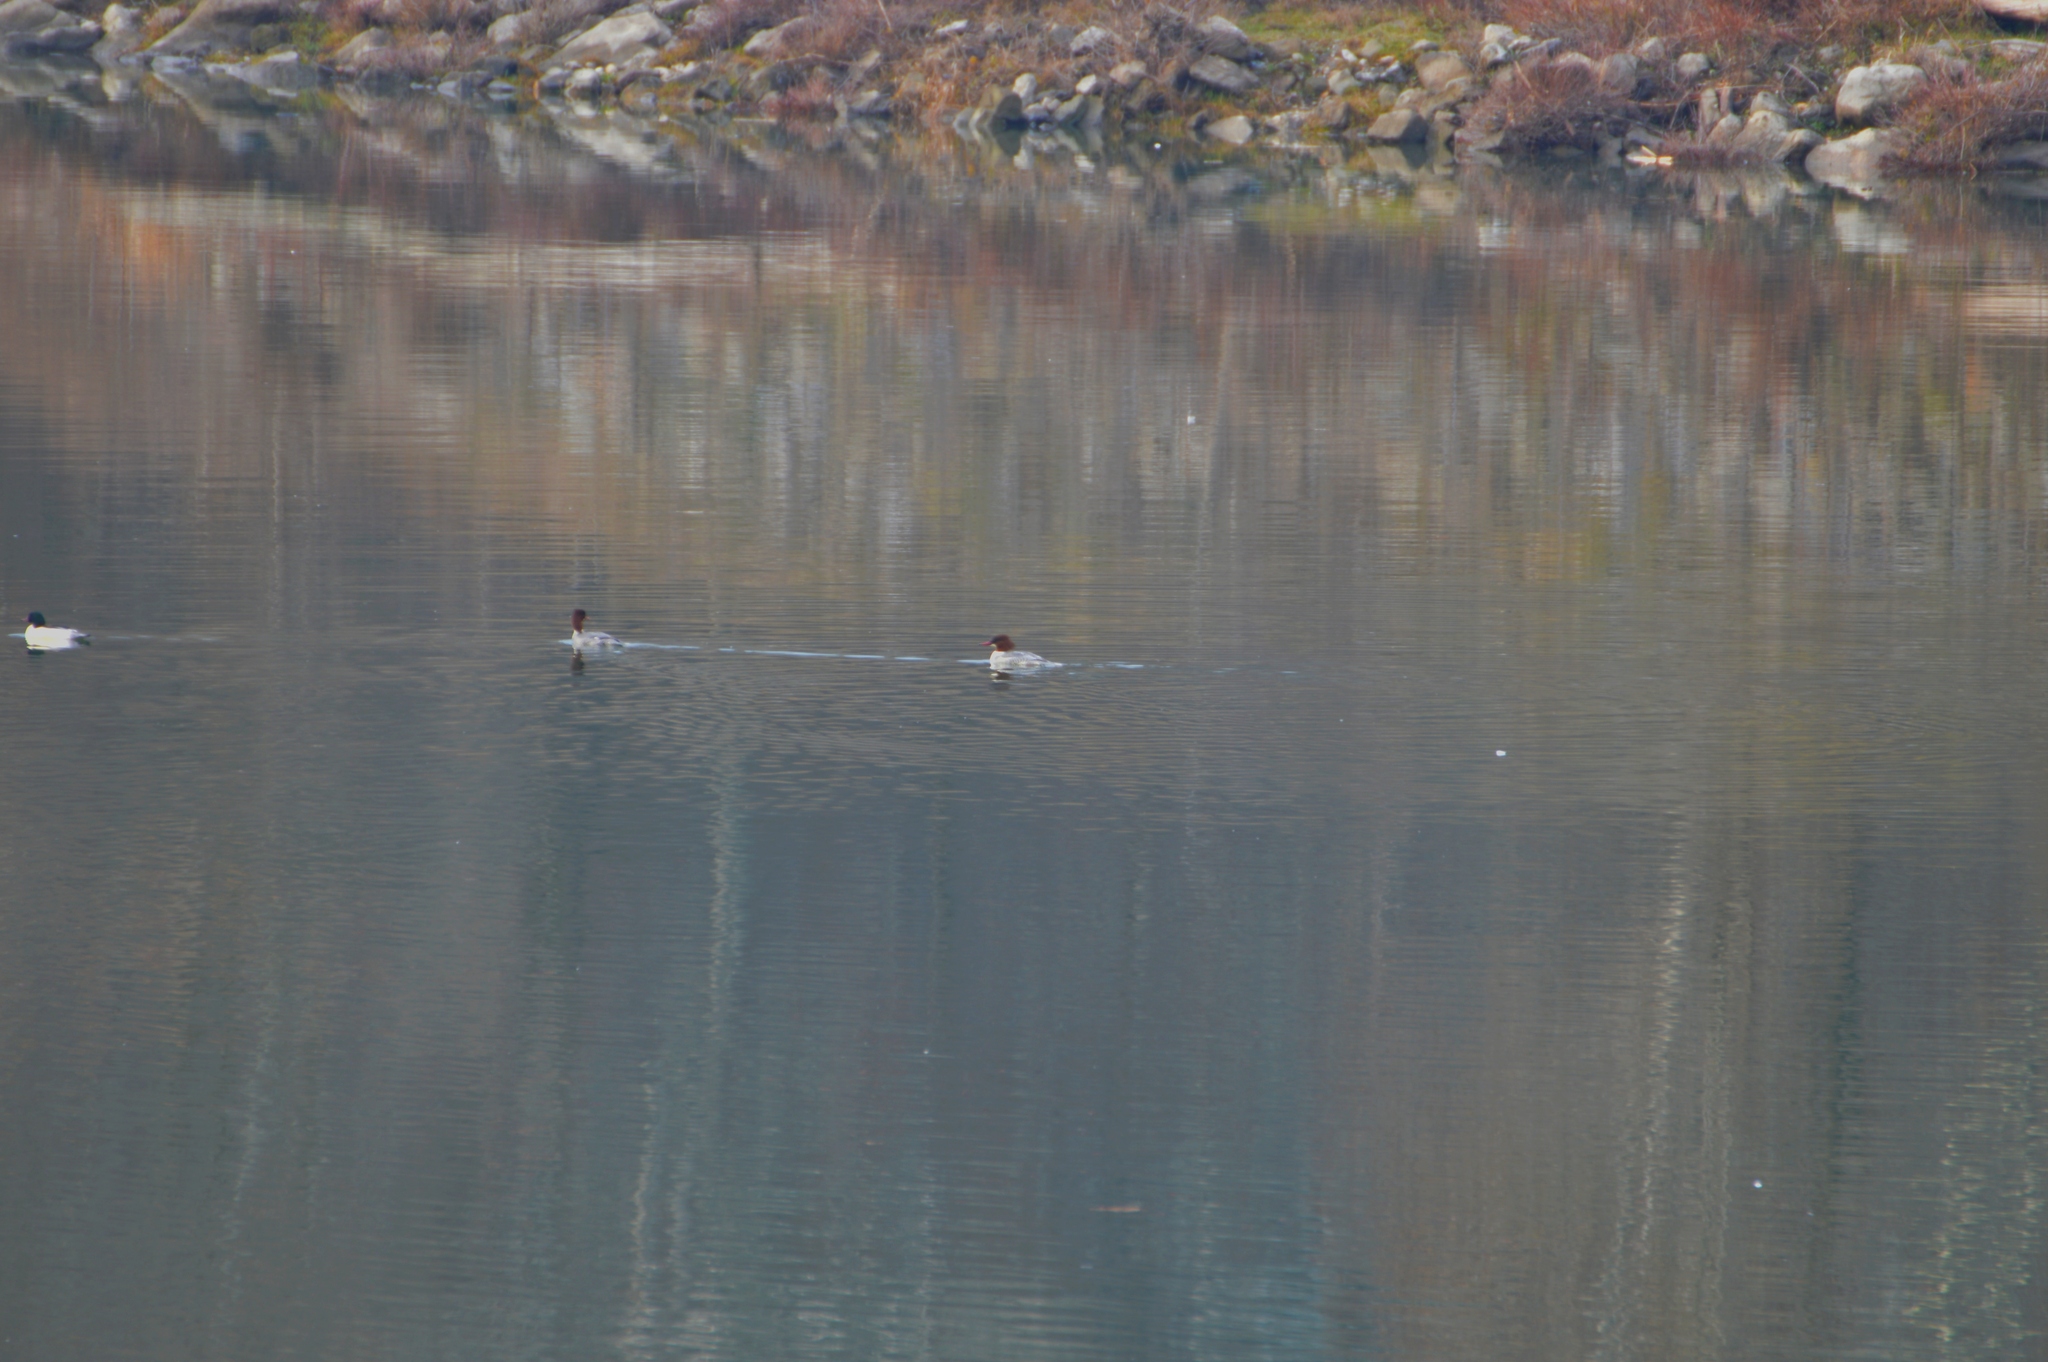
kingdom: Animalia
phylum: Chordata
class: Aves
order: Anseriformes
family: Anatidae
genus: Mergus
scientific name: Mergus merganser
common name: Common merganser
